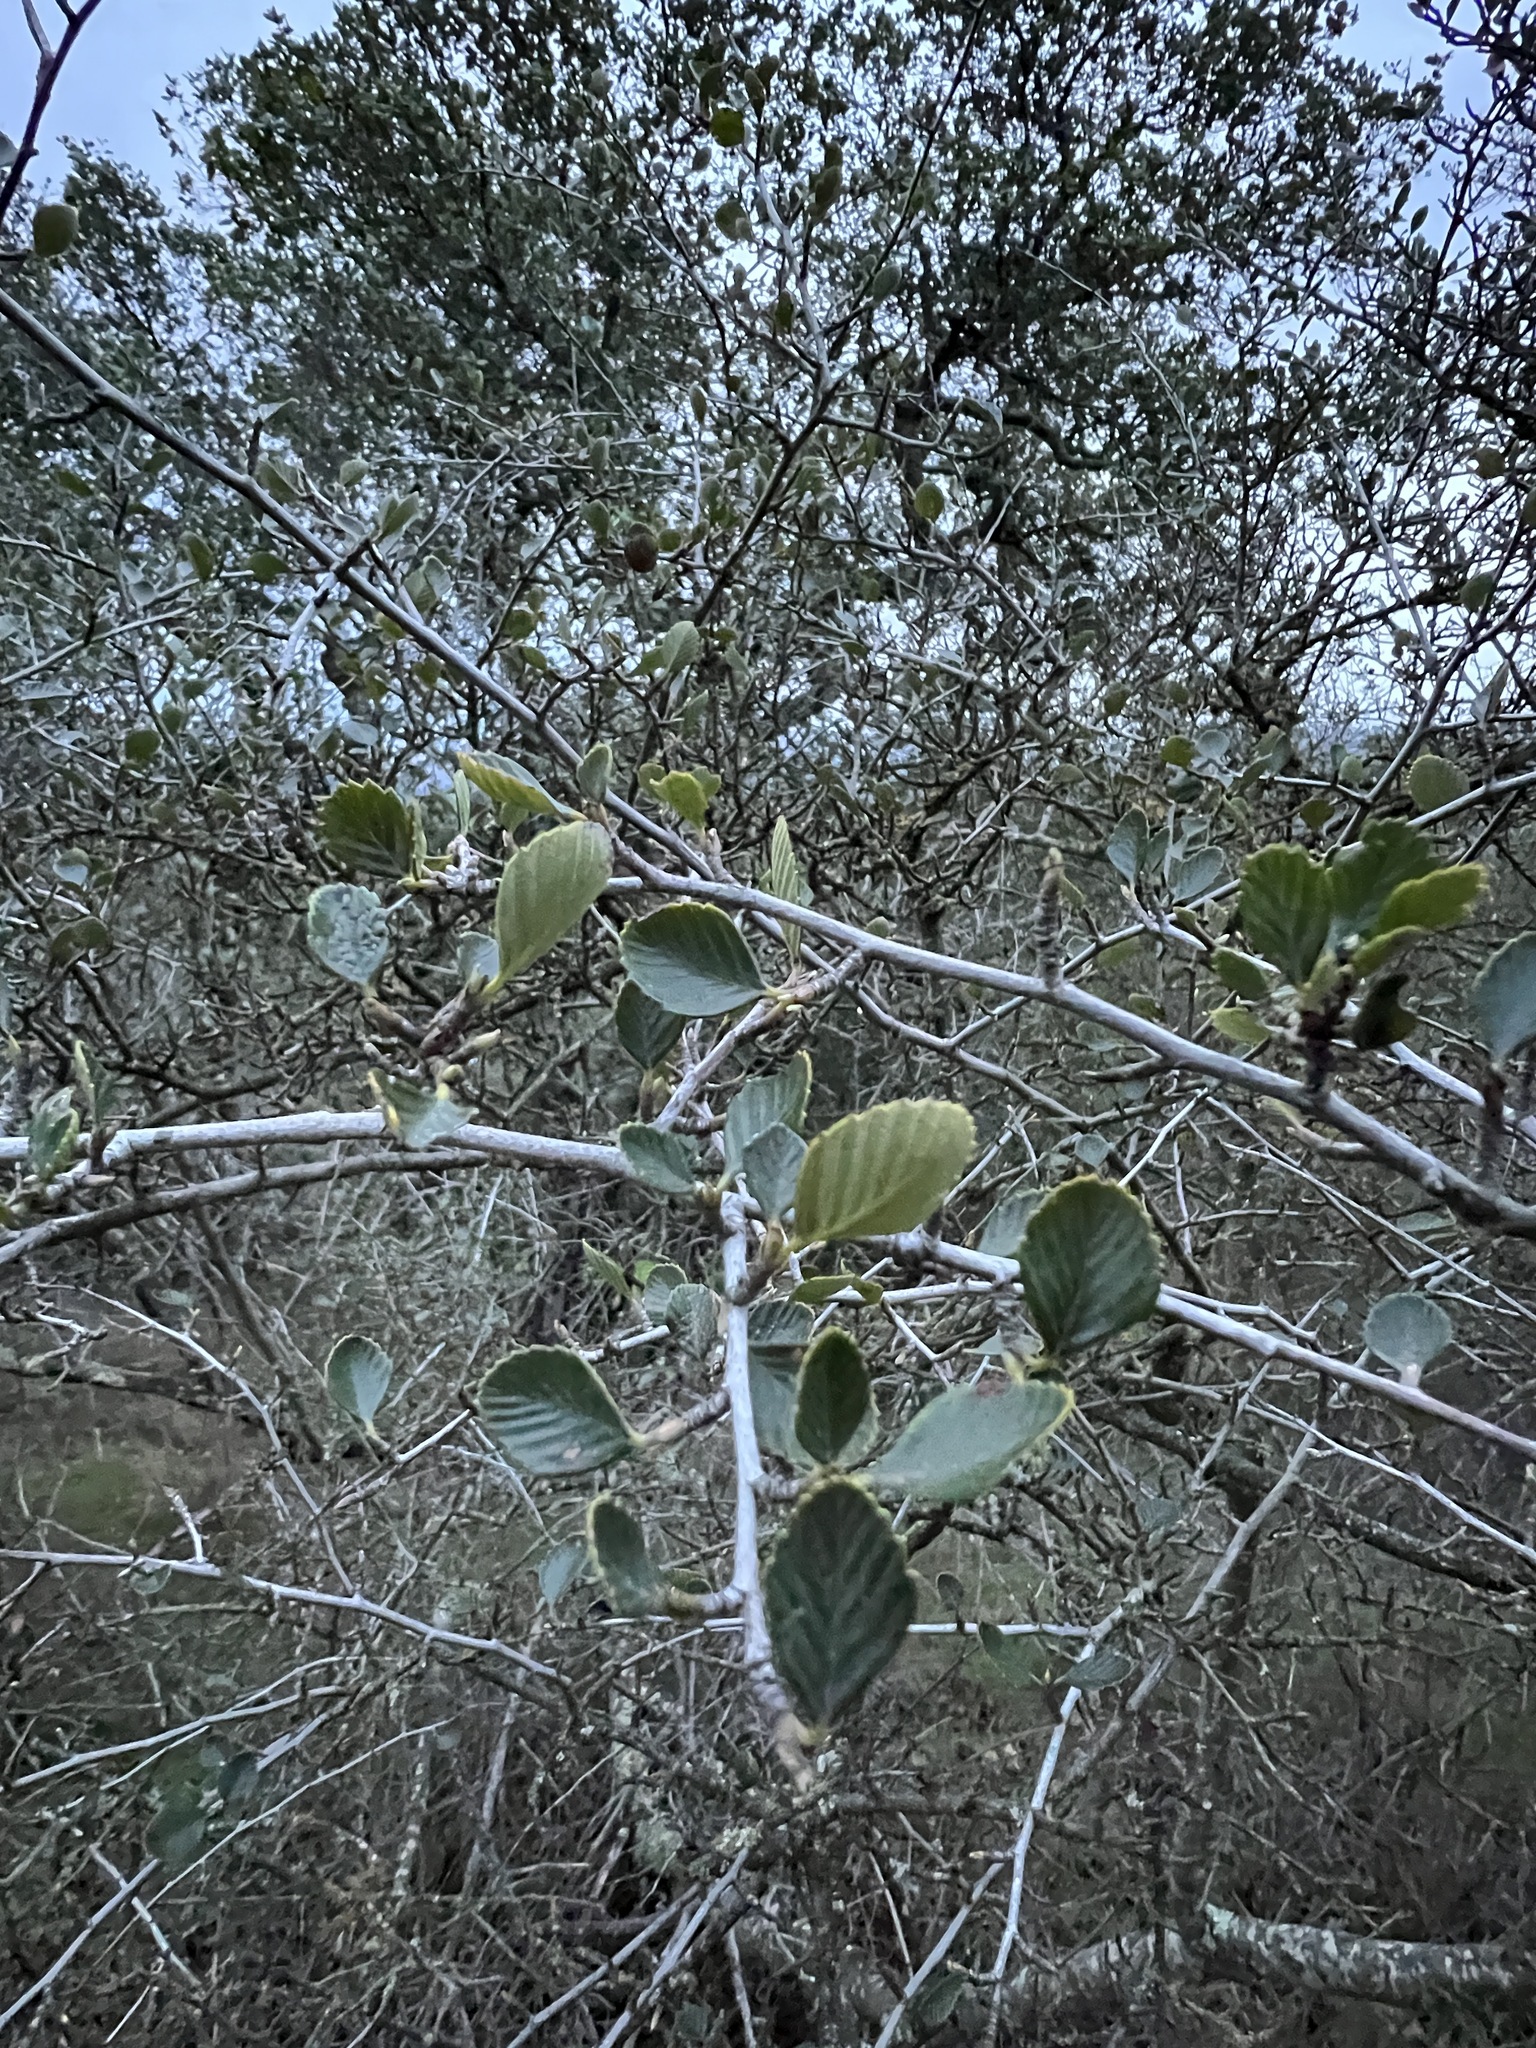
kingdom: Plantae
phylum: Tracheophyta
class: Magnoliopsida
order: Rosales
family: Rosaceae
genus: Cercocarpus
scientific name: Cercocarpus betuloides
